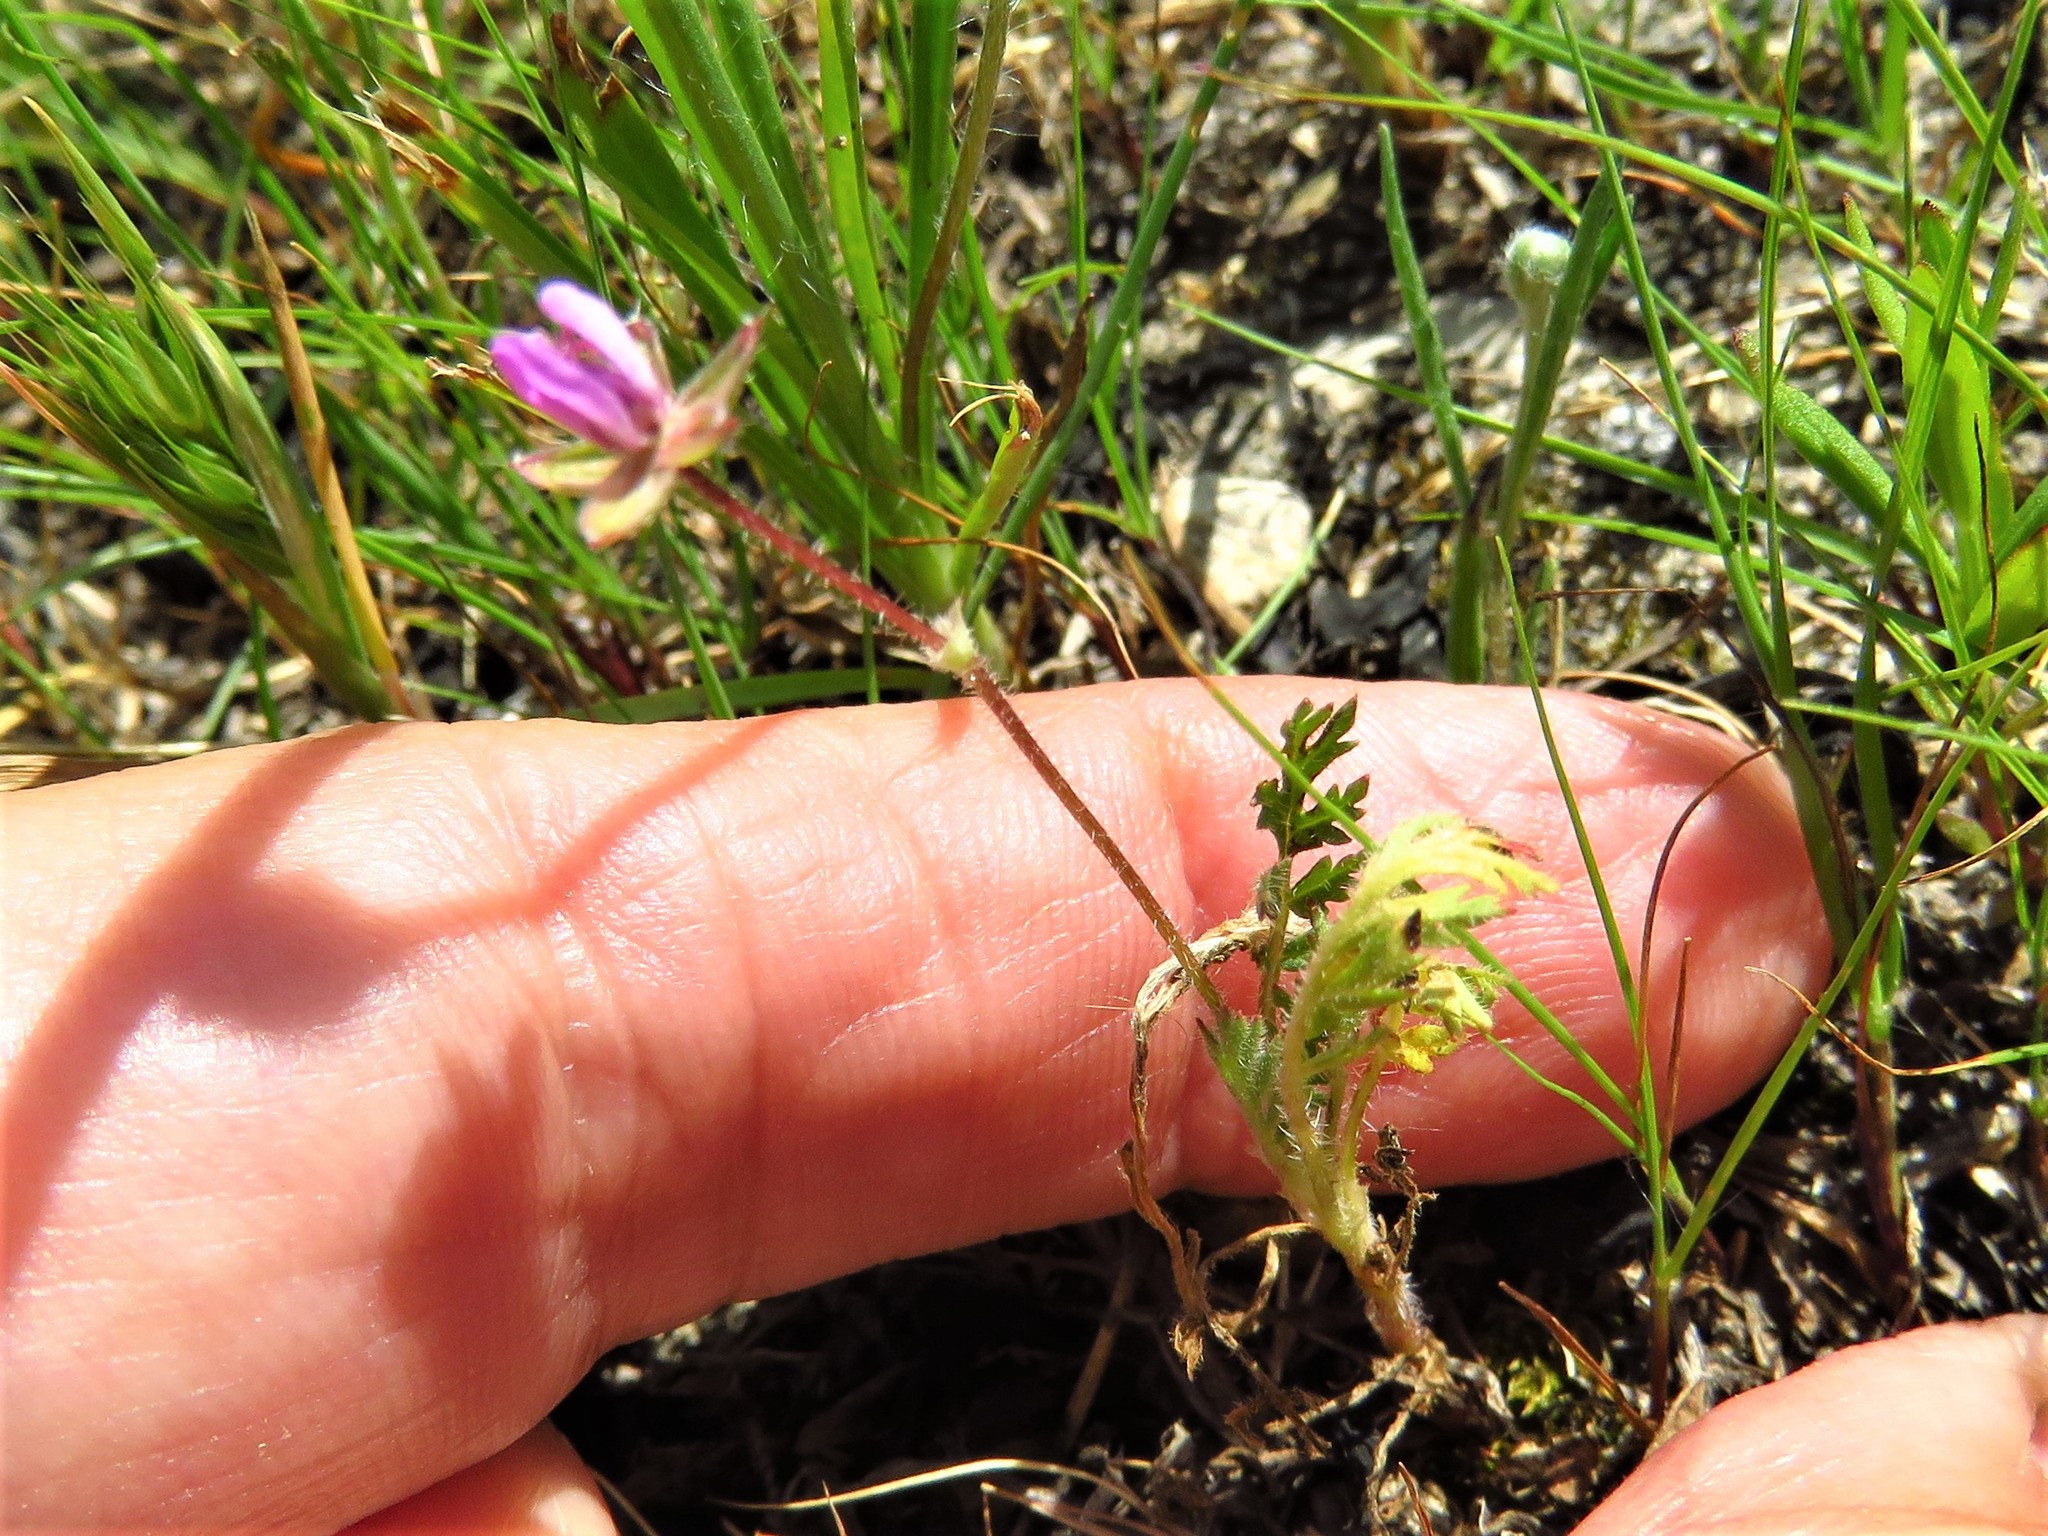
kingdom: Plantae
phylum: Tracheophyta
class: Magnoliopsida
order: Geraniales
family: Geraniaceae
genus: Erodium
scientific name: Erodium cicutarium
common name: Common stork's-bill
